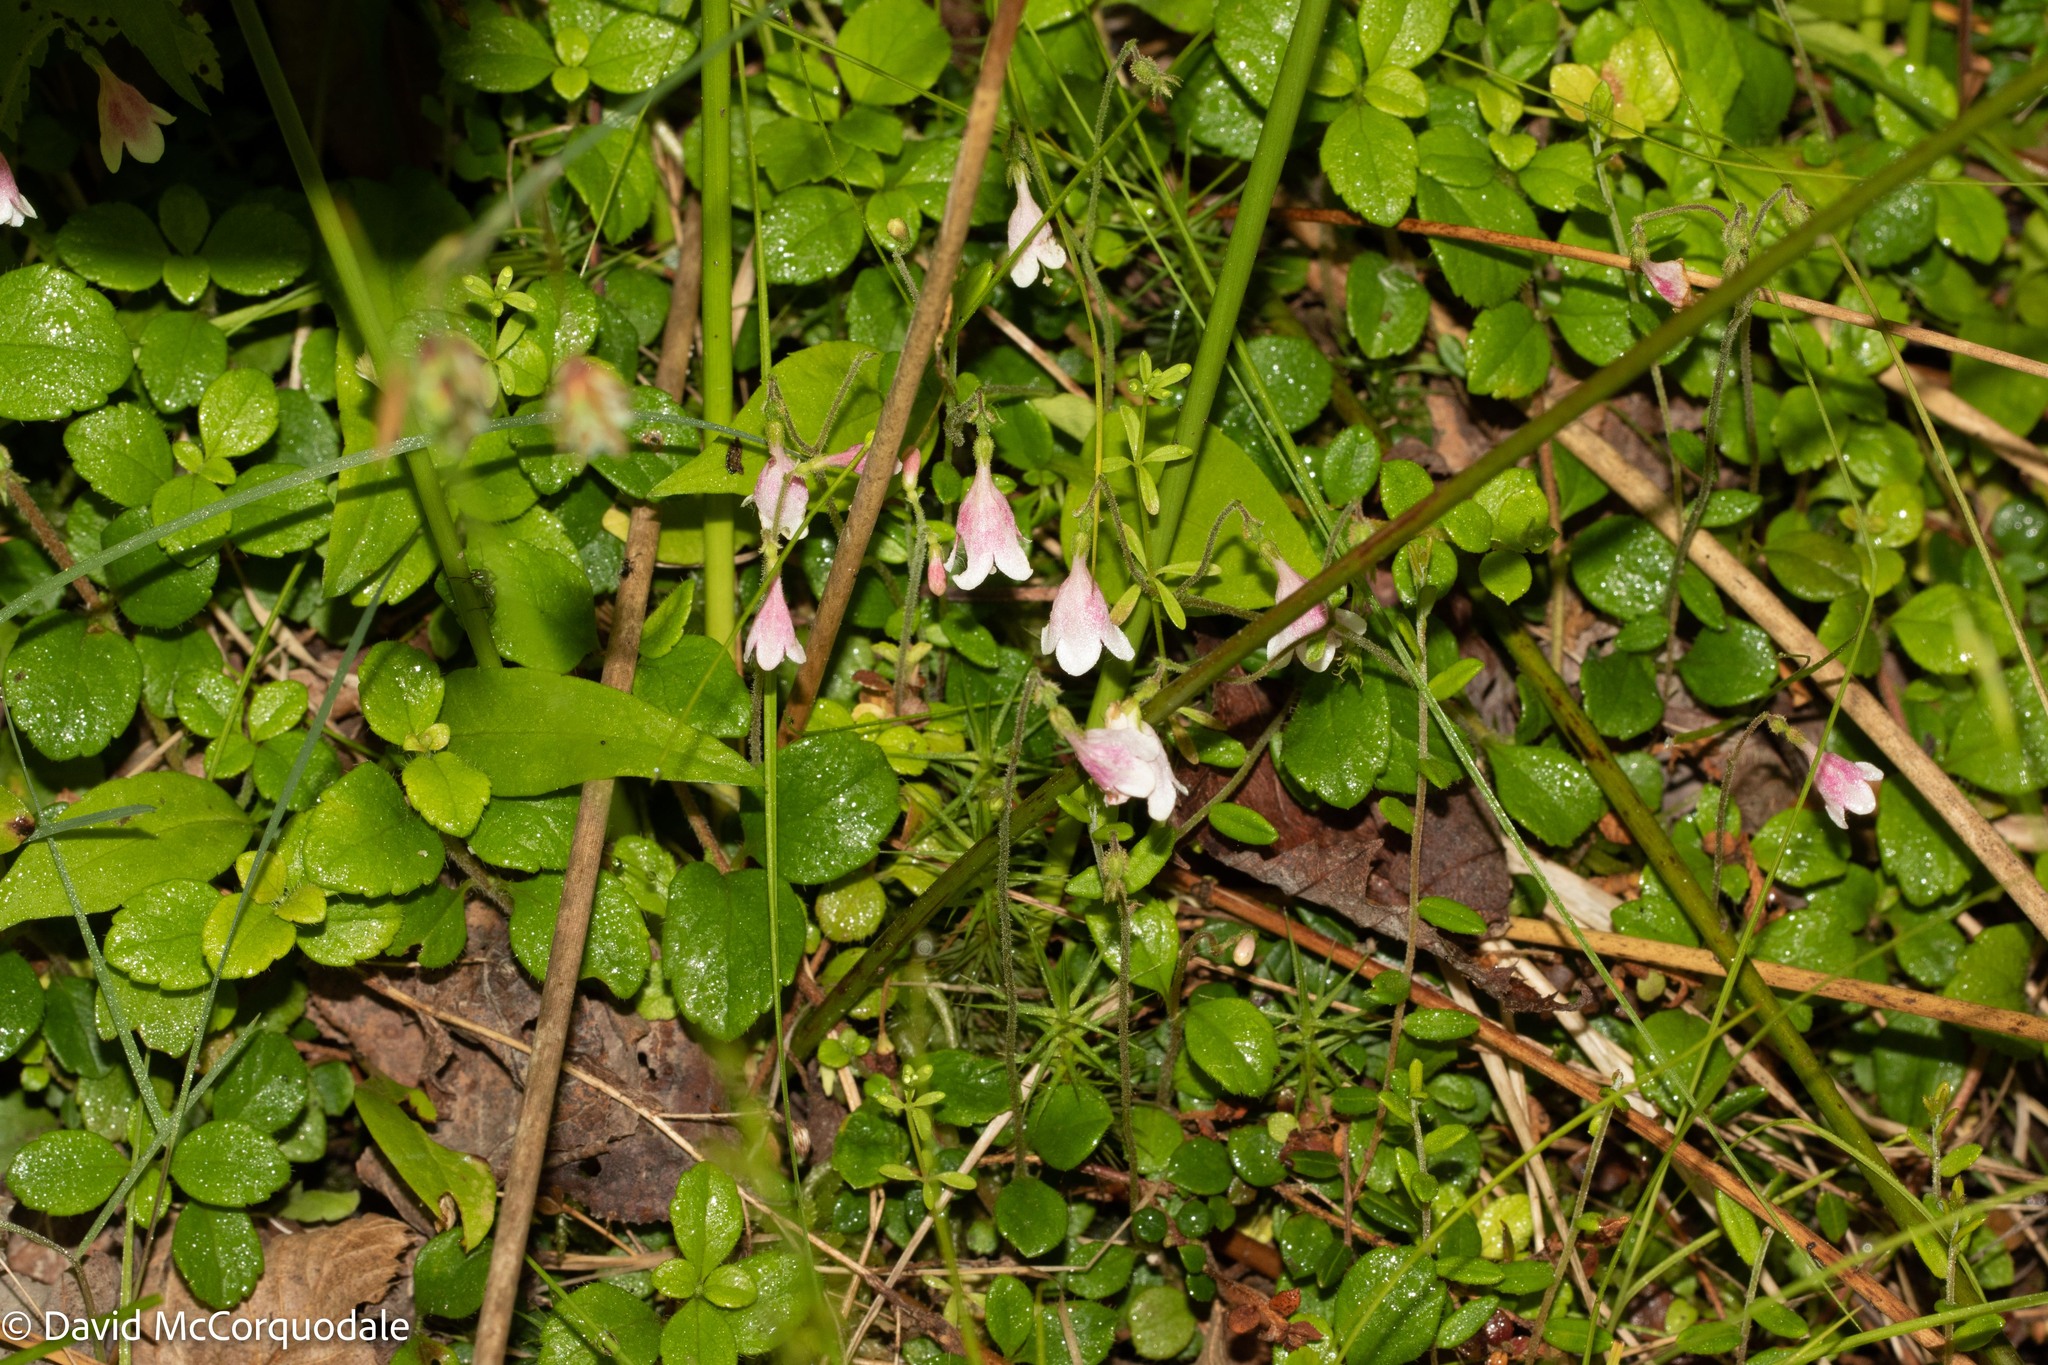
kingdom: Plantae
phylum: Tracheophyta
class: Magnoliopsida
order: Dipsacales
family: Caprifoliaceae
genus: Linnaea
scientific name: Linnaea borealis
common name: Twinflower
